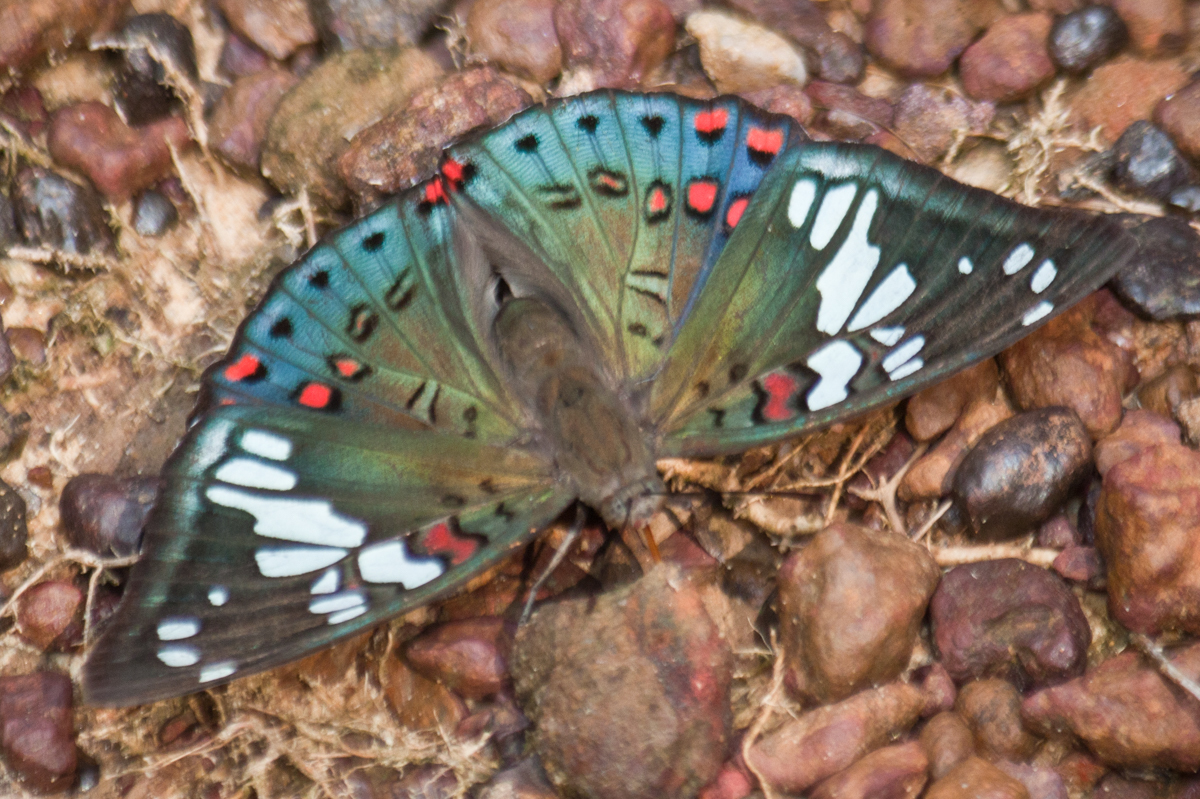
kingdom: Animalia
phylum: Arthropoda
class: Insecta
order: Lepidoptera
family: Nymphalidae
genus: Euthalia
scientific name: Euthalia lubentina
